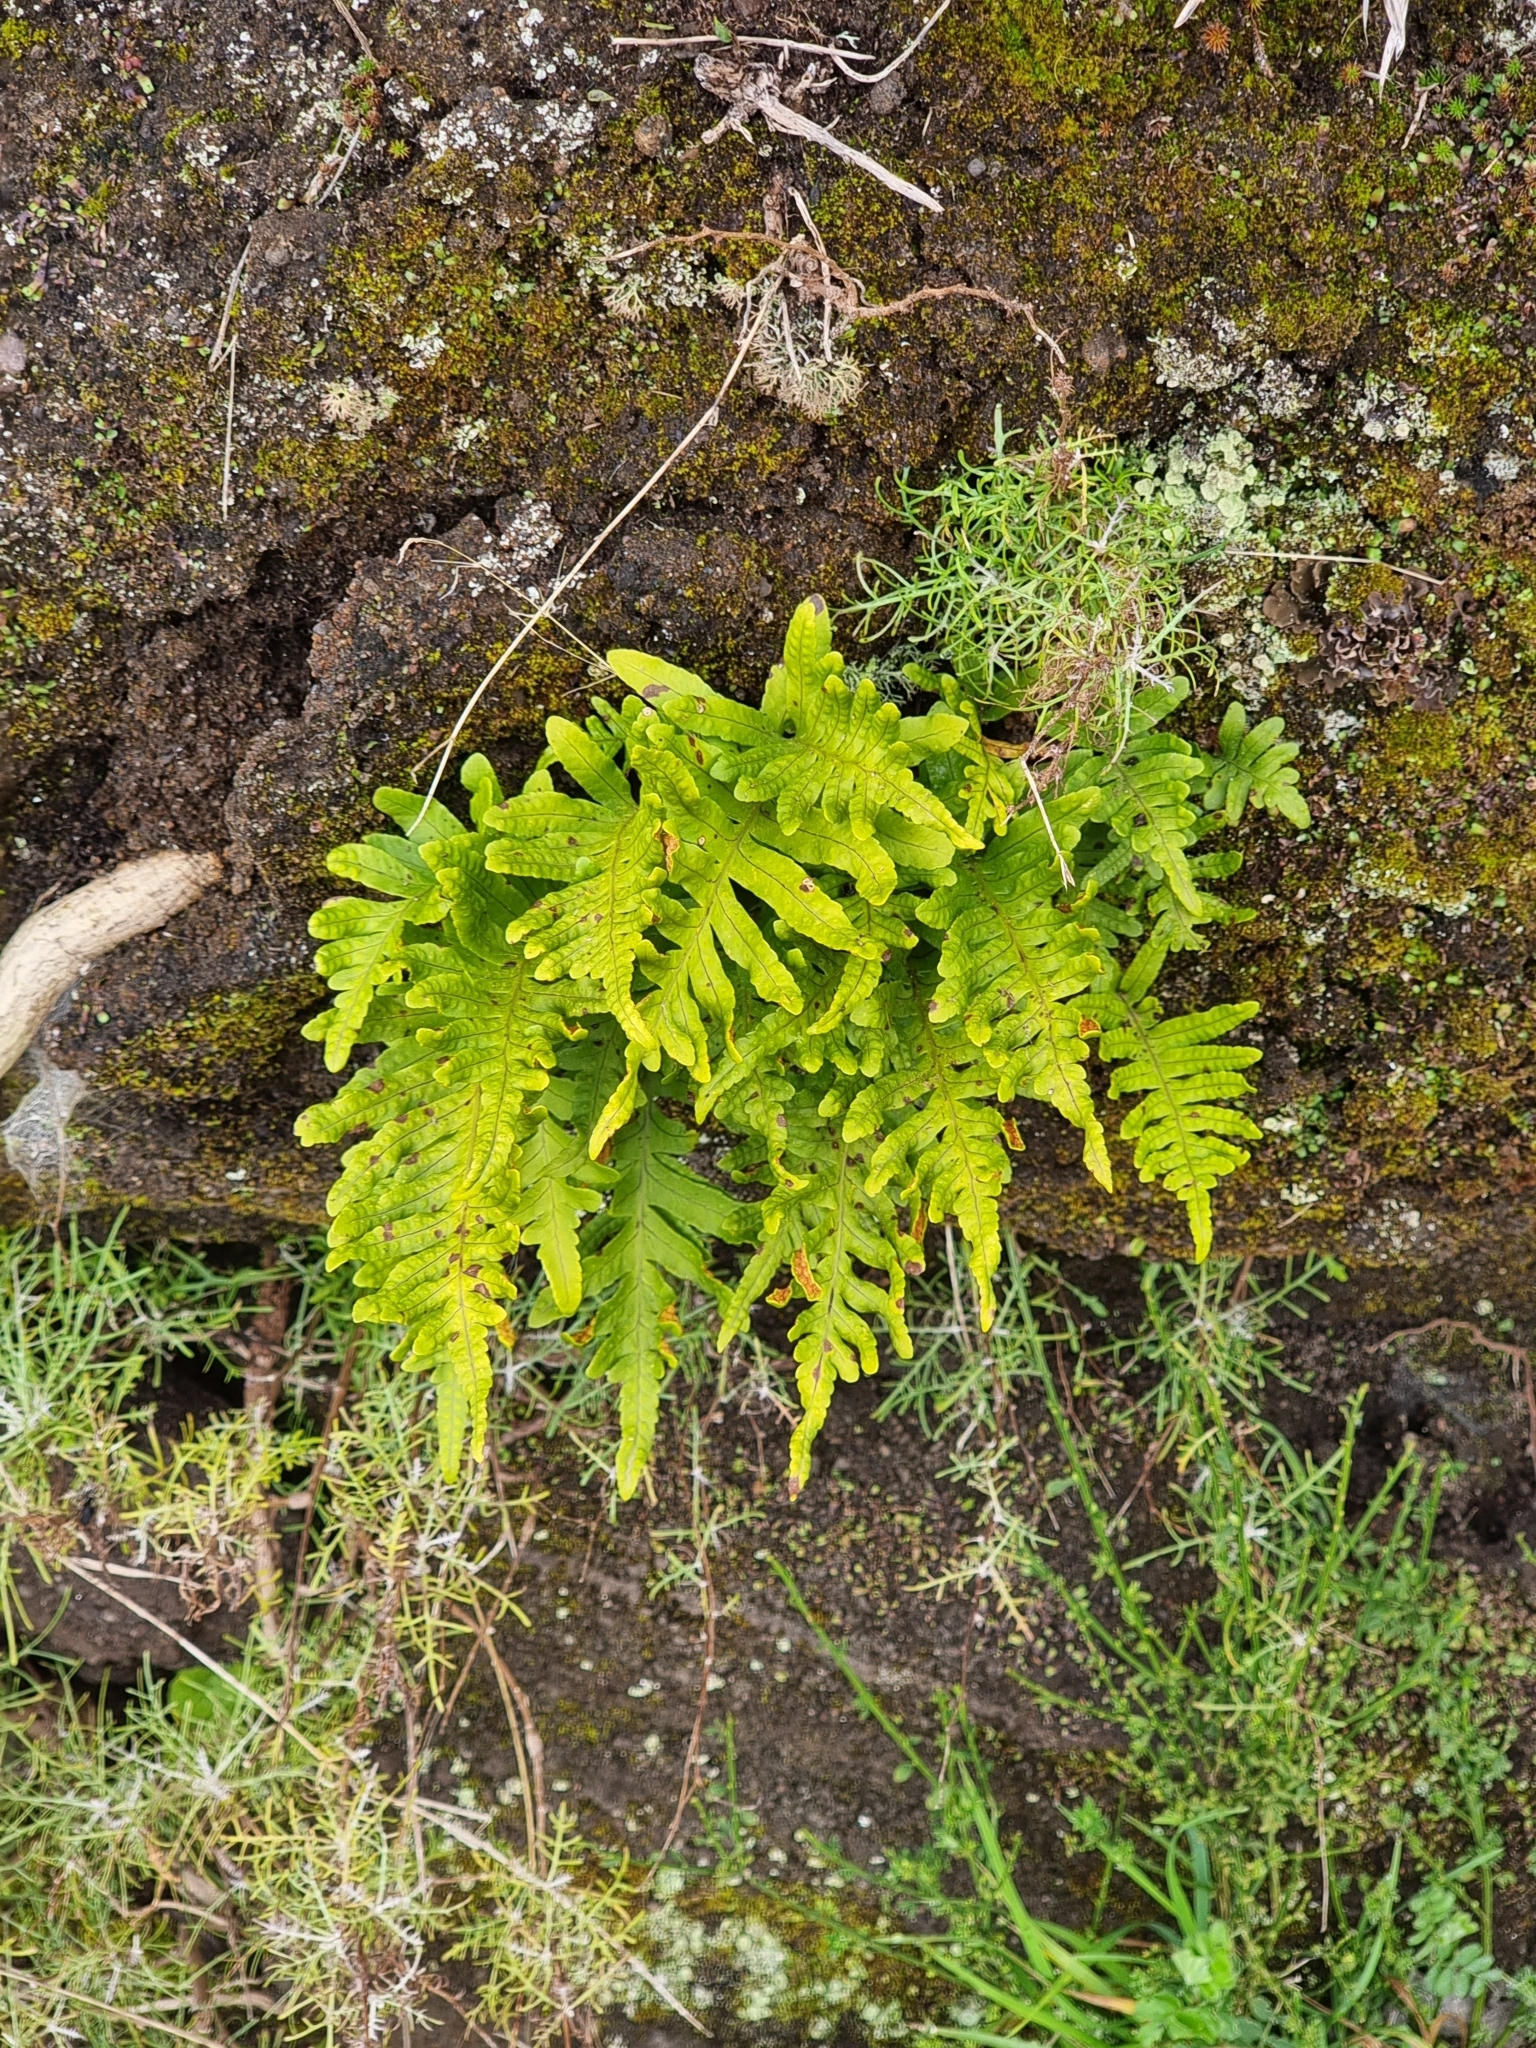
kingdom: Plantae
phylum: Tracheophyta
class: Polypodiopsida
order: Polypodiales
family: Polypodiaceae
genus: Polypodium
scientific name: Polypodium macaronesicum
